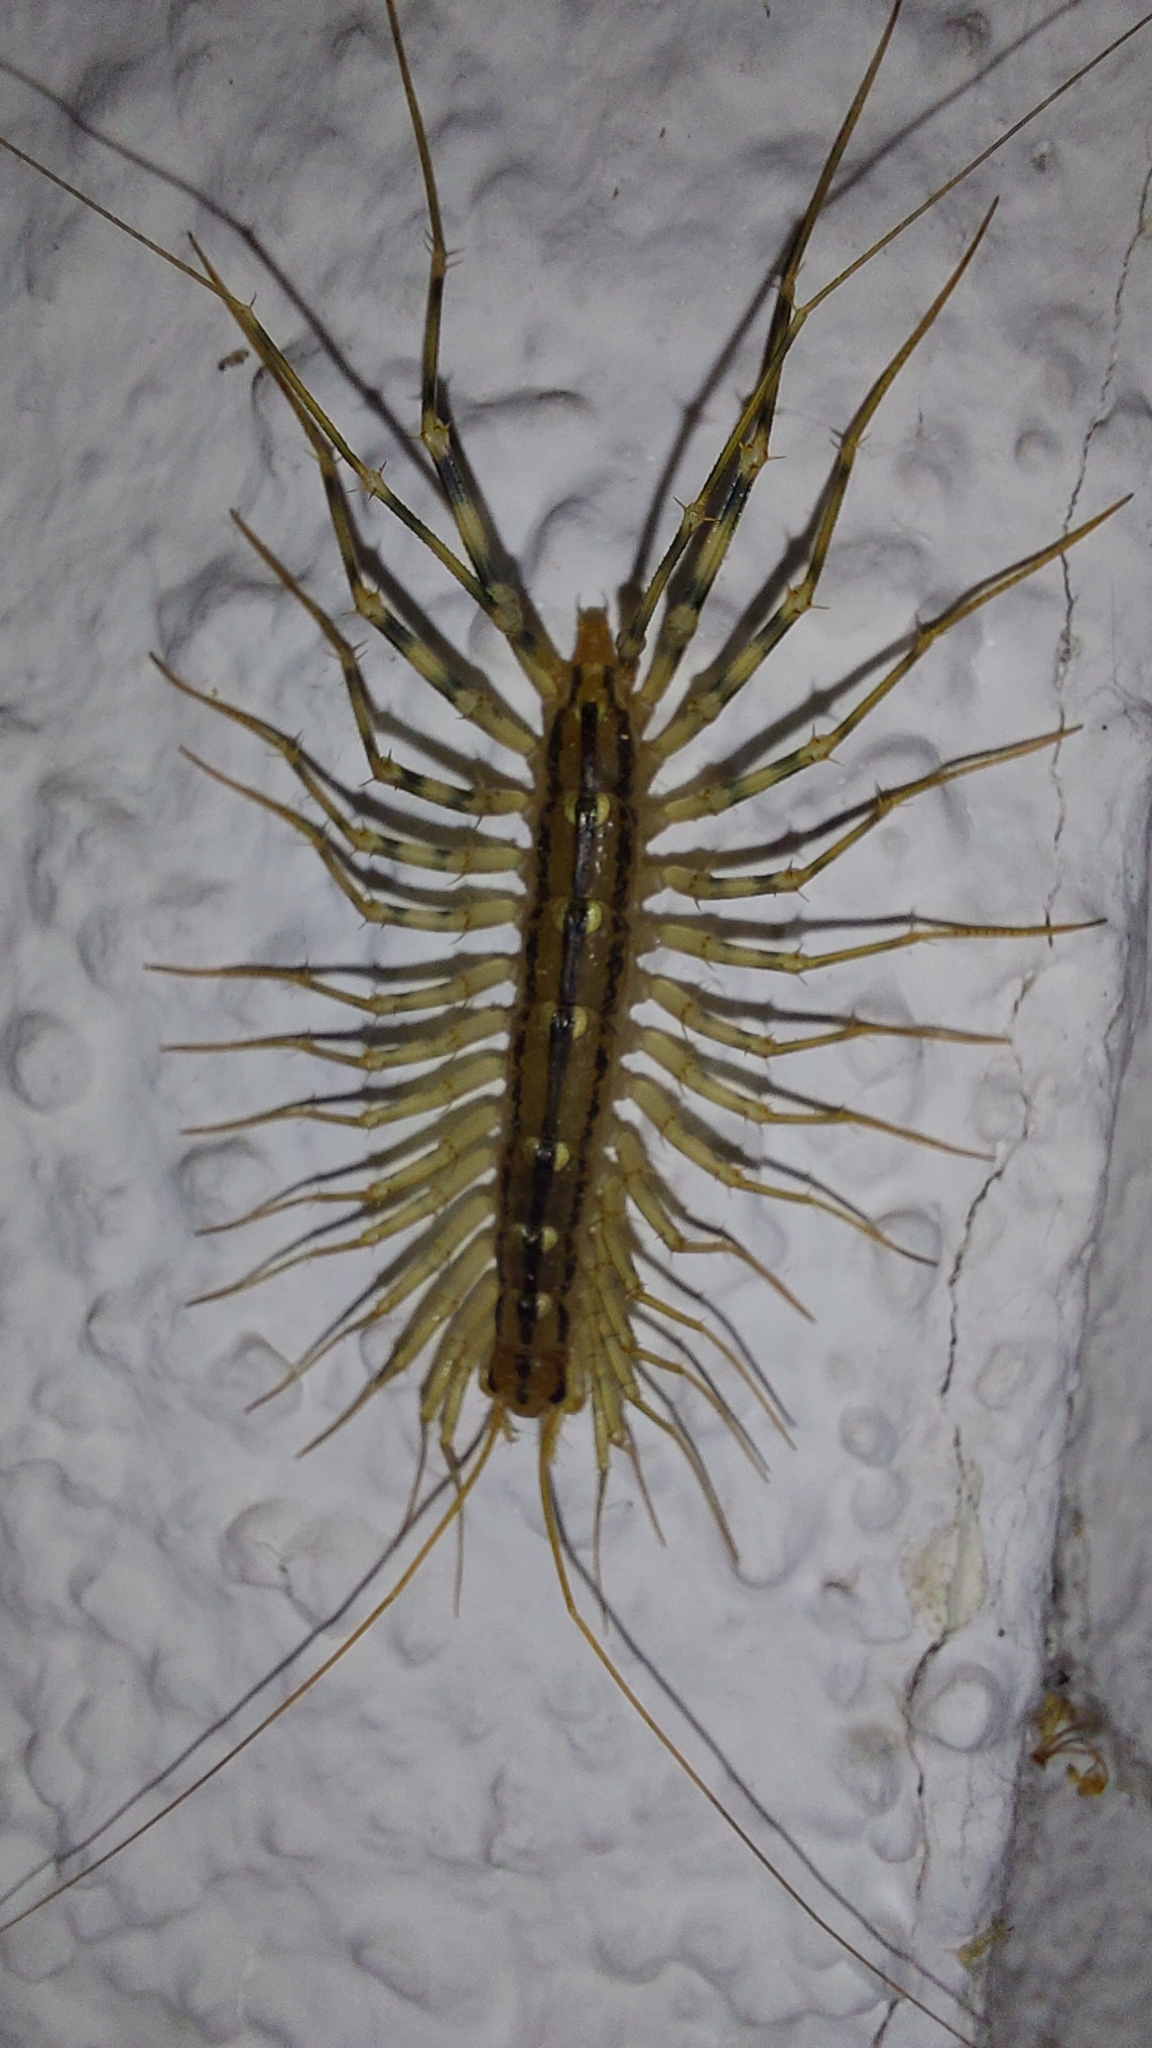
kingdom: Animalia
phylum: Arthropoda
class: Chilopoda
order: Scutigeromorpha
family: Scutigeridae
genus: Scutigera
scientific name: Scutigera coleoptrata
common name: House centipede
